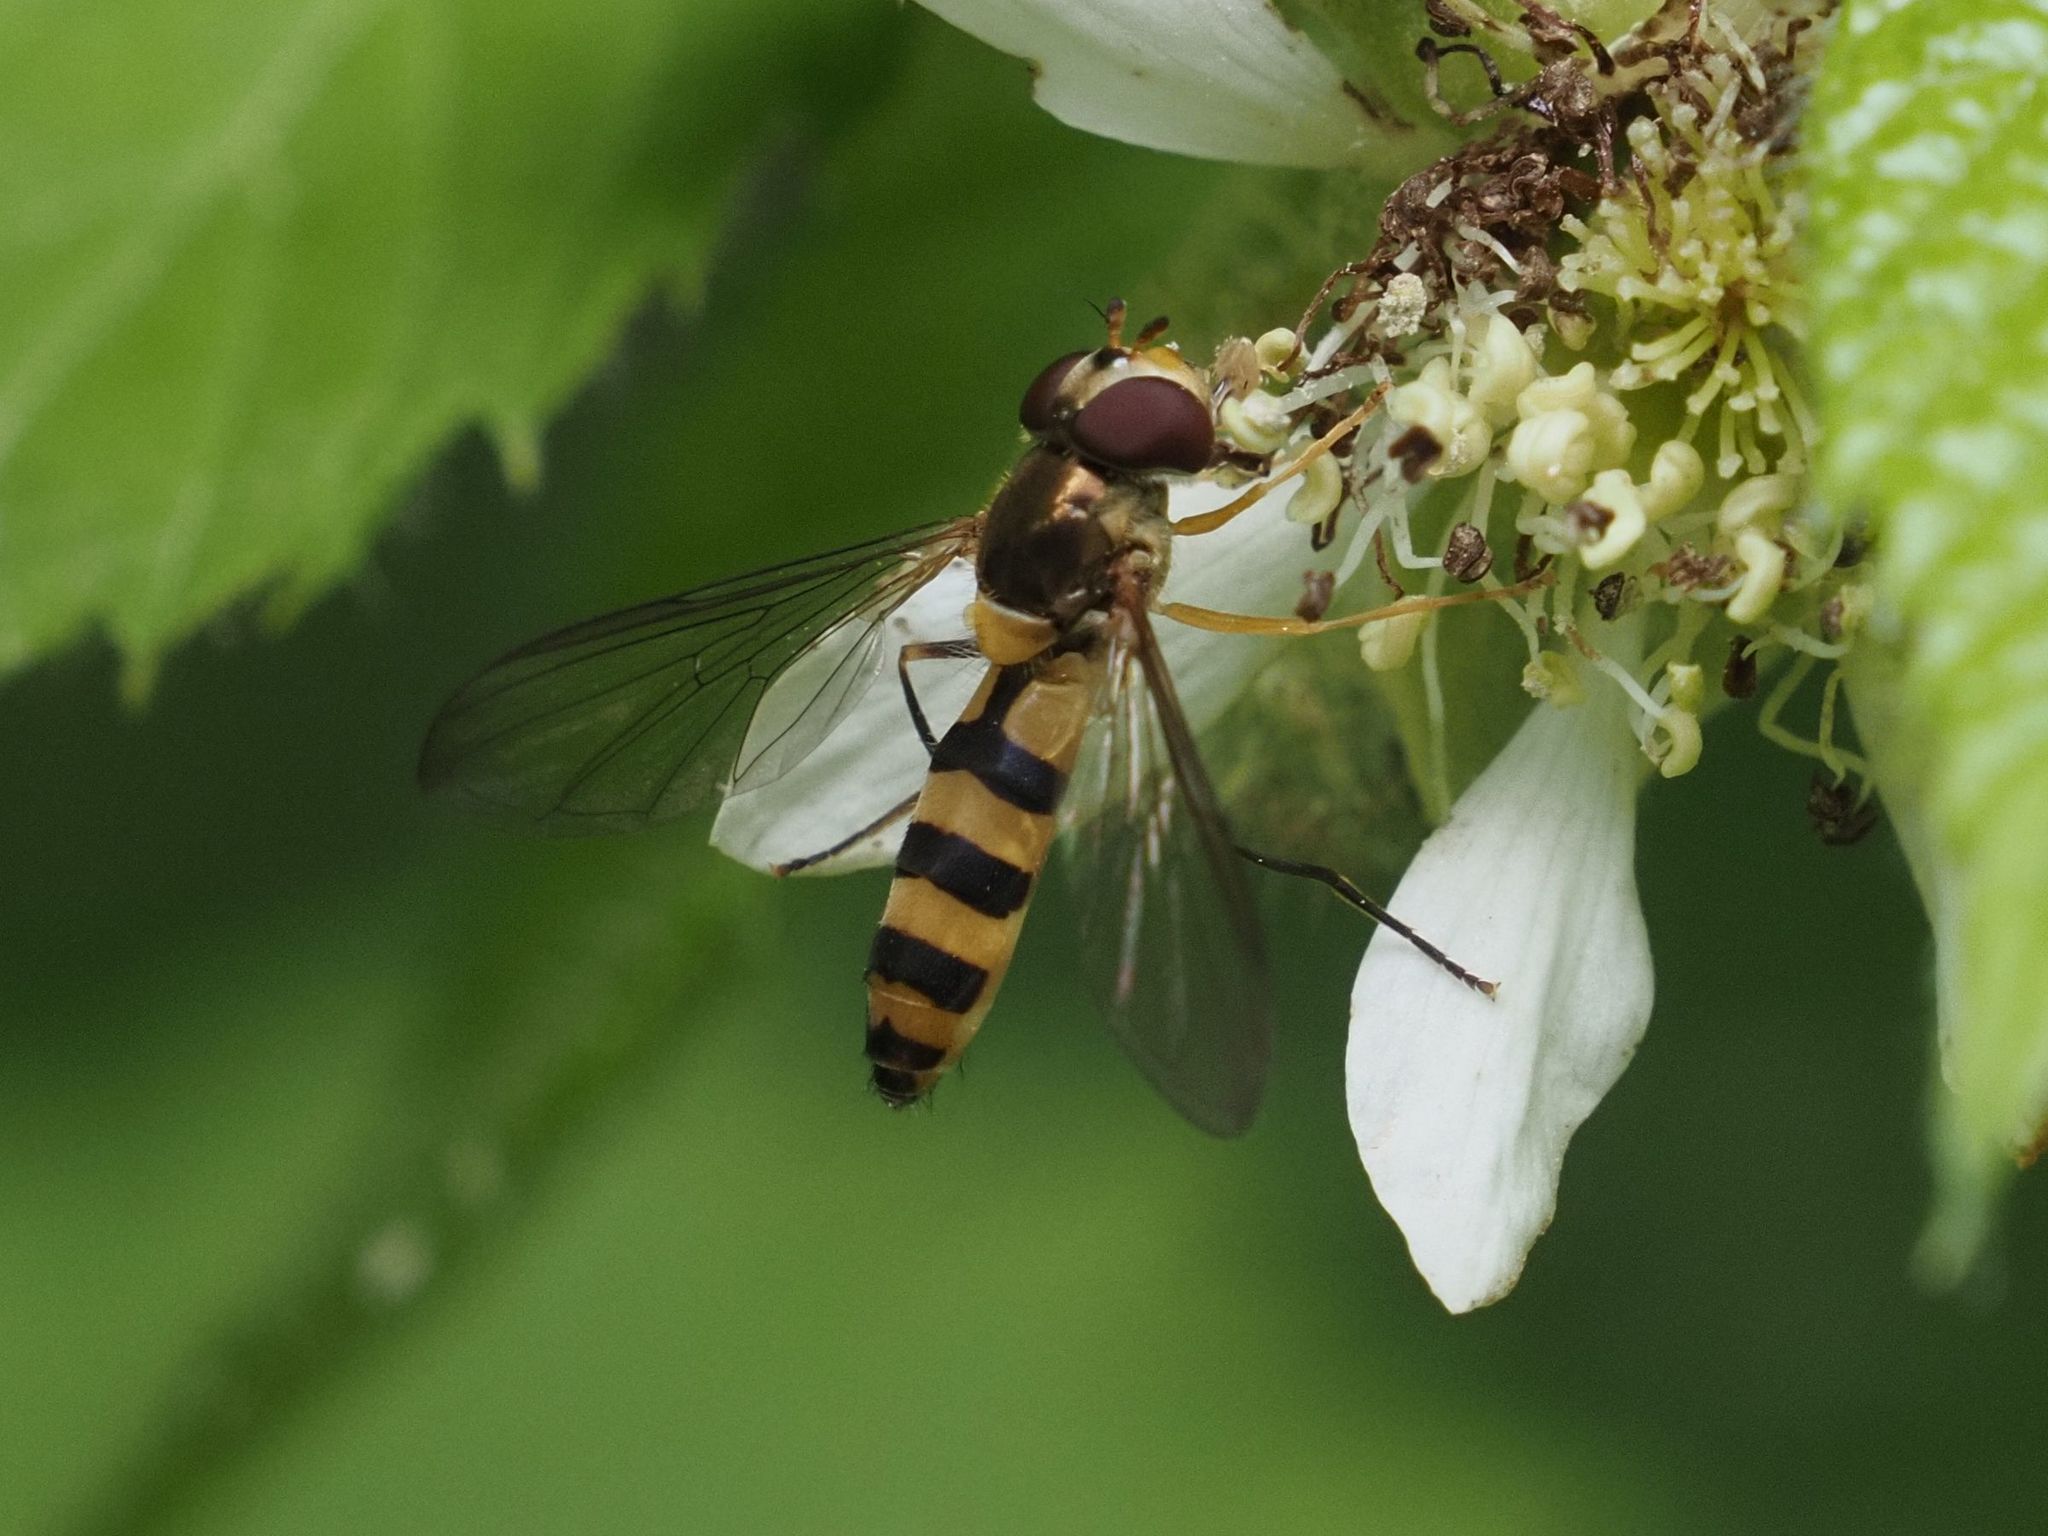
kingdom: Animalia
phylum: Arthropoda
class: Insecta
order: Diptera
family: Syrphidae
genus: Meliscaeva
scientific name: Meliscaeva cinctella
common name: American thintail fly
